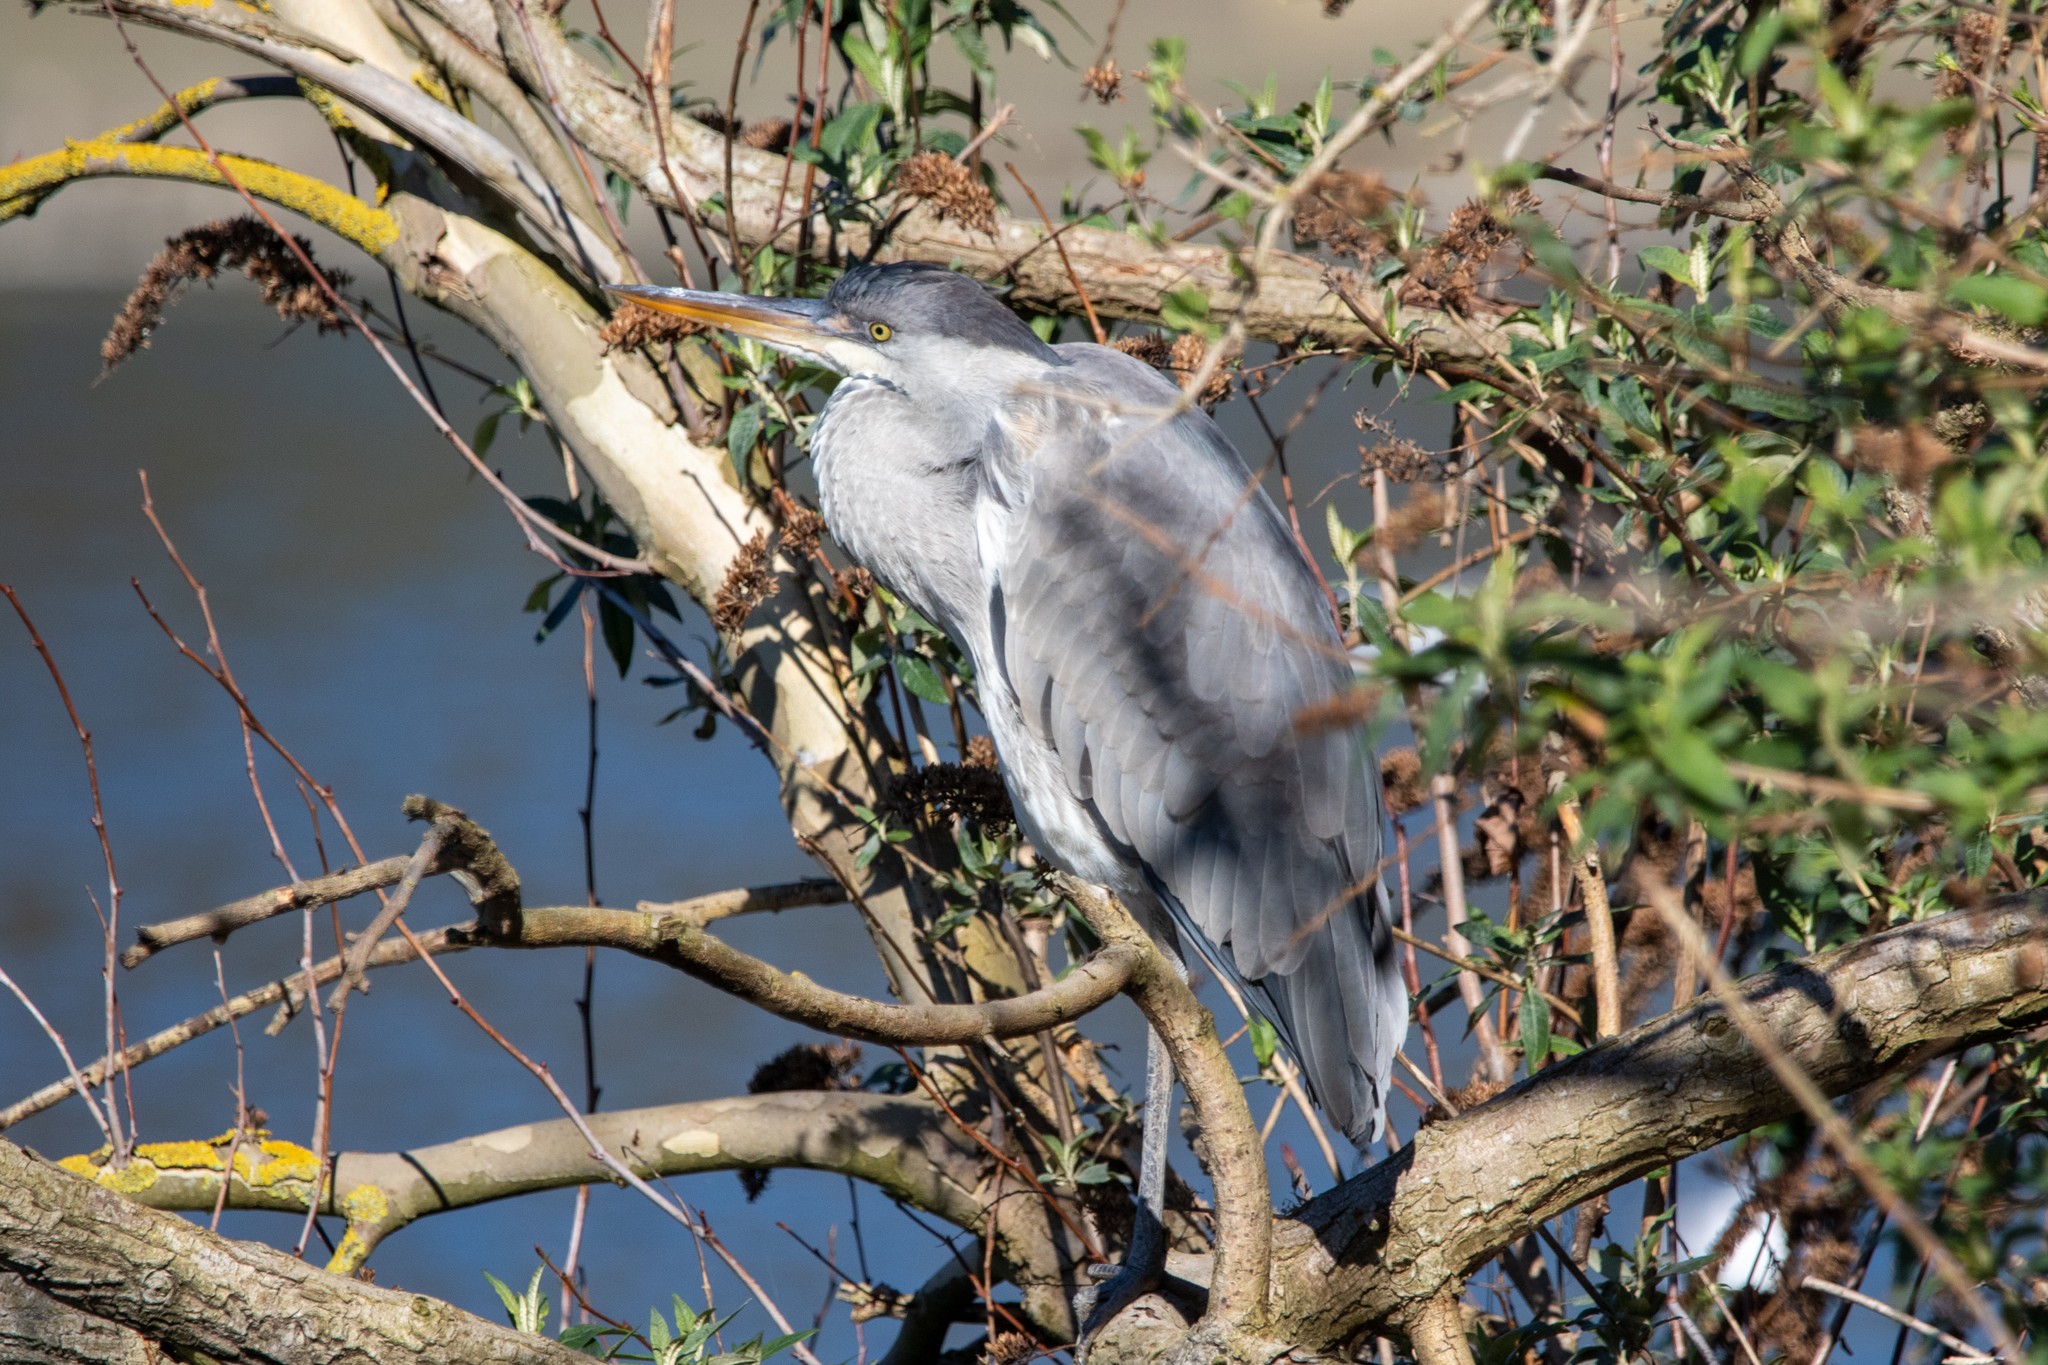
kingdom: Animalia
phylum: Chordata
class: Aves
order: Pelecaniformes
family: Ardeidae
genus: Ardea
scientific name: Ardea cinerea
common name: Grey heron
